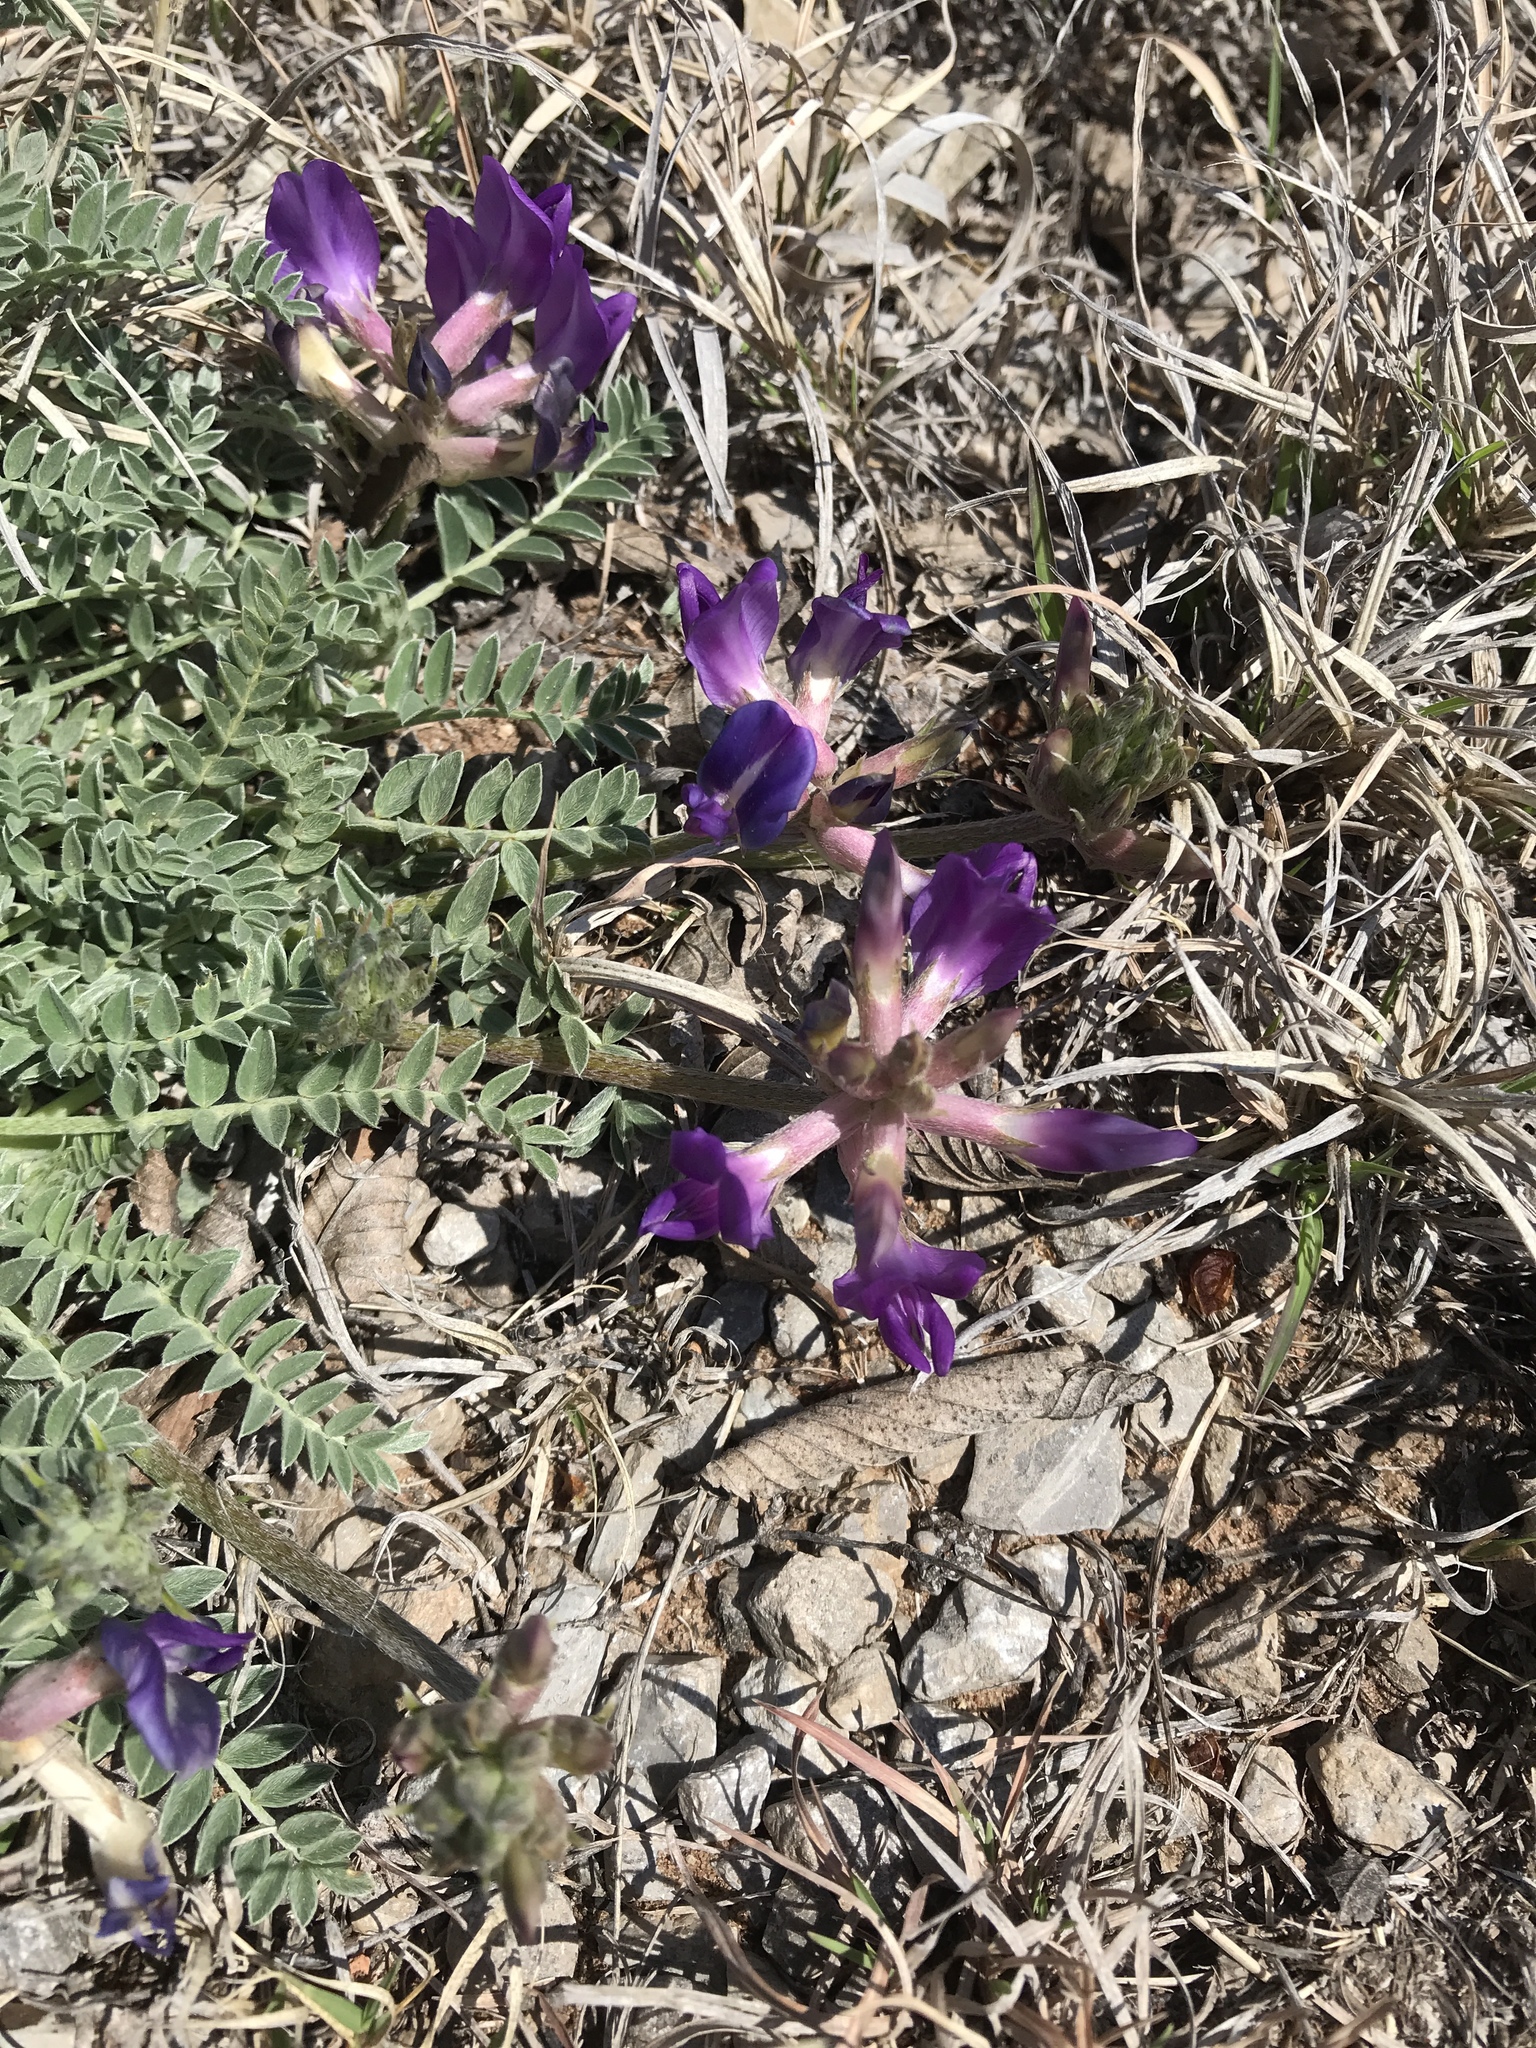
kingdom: Plantae
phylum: Tracheophyta
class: Magnoliopsida
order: Fabales
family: Fabaceae
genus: Astragalus
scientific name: Astragalus missouriensis
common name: Missouri milk-vetch
